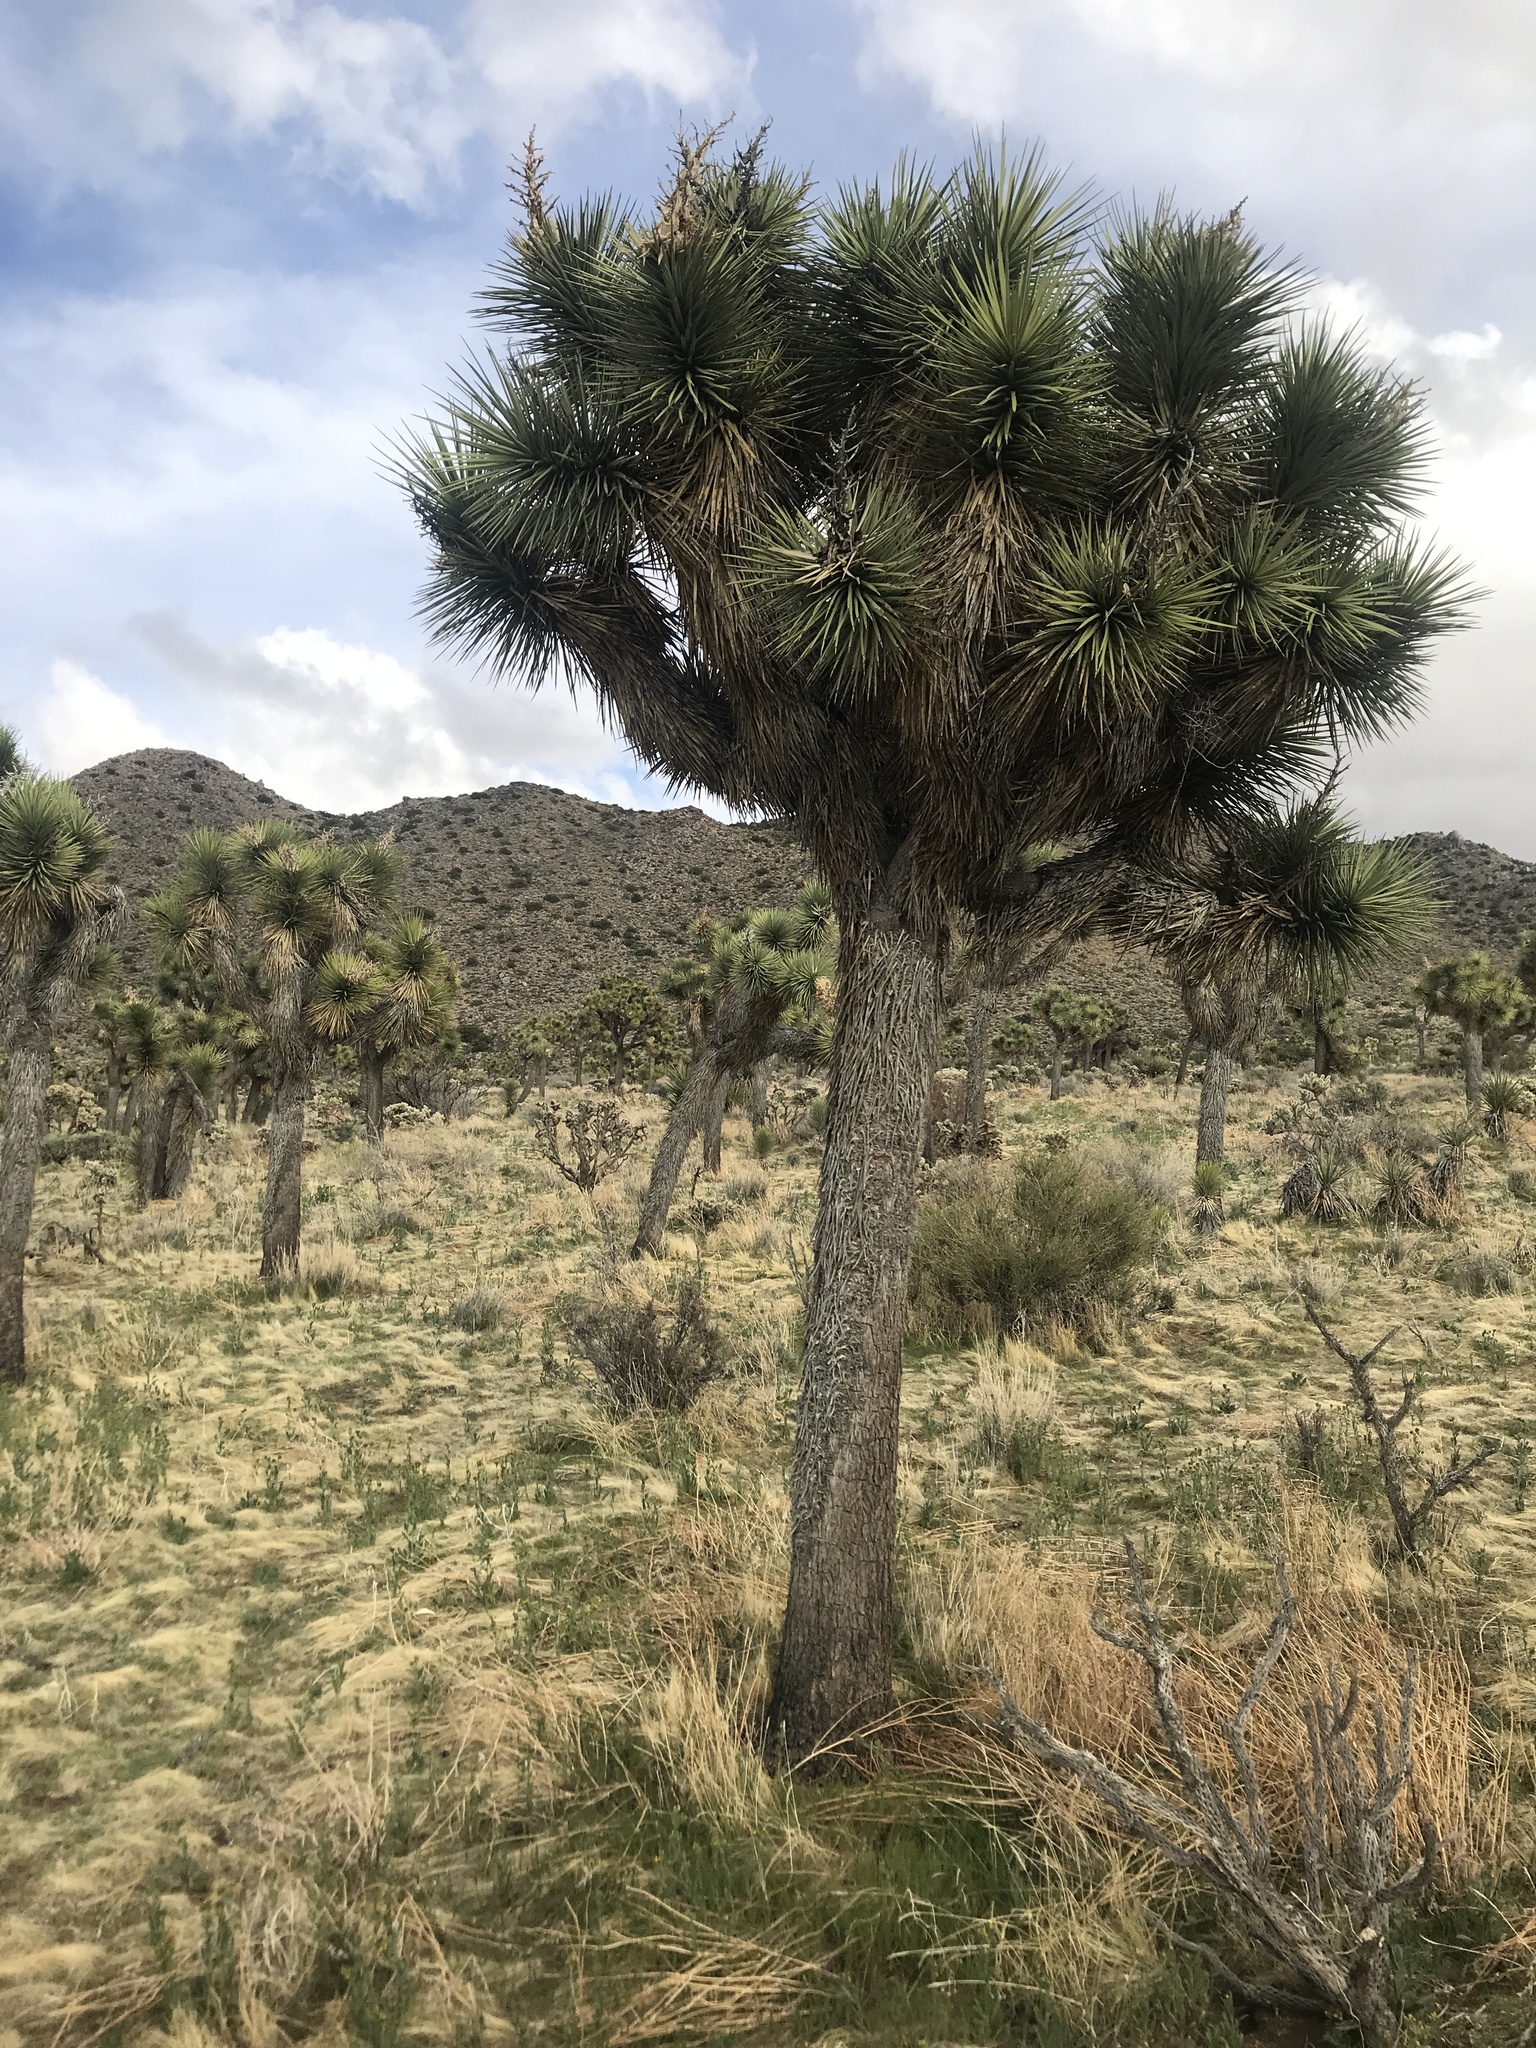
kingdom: Plantae
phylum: Tracheophyta
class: Liliopsida
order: Asparagales
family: Asparagaceae
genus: Yucca
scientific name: Yucca brevifolia
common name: Joshua tree
